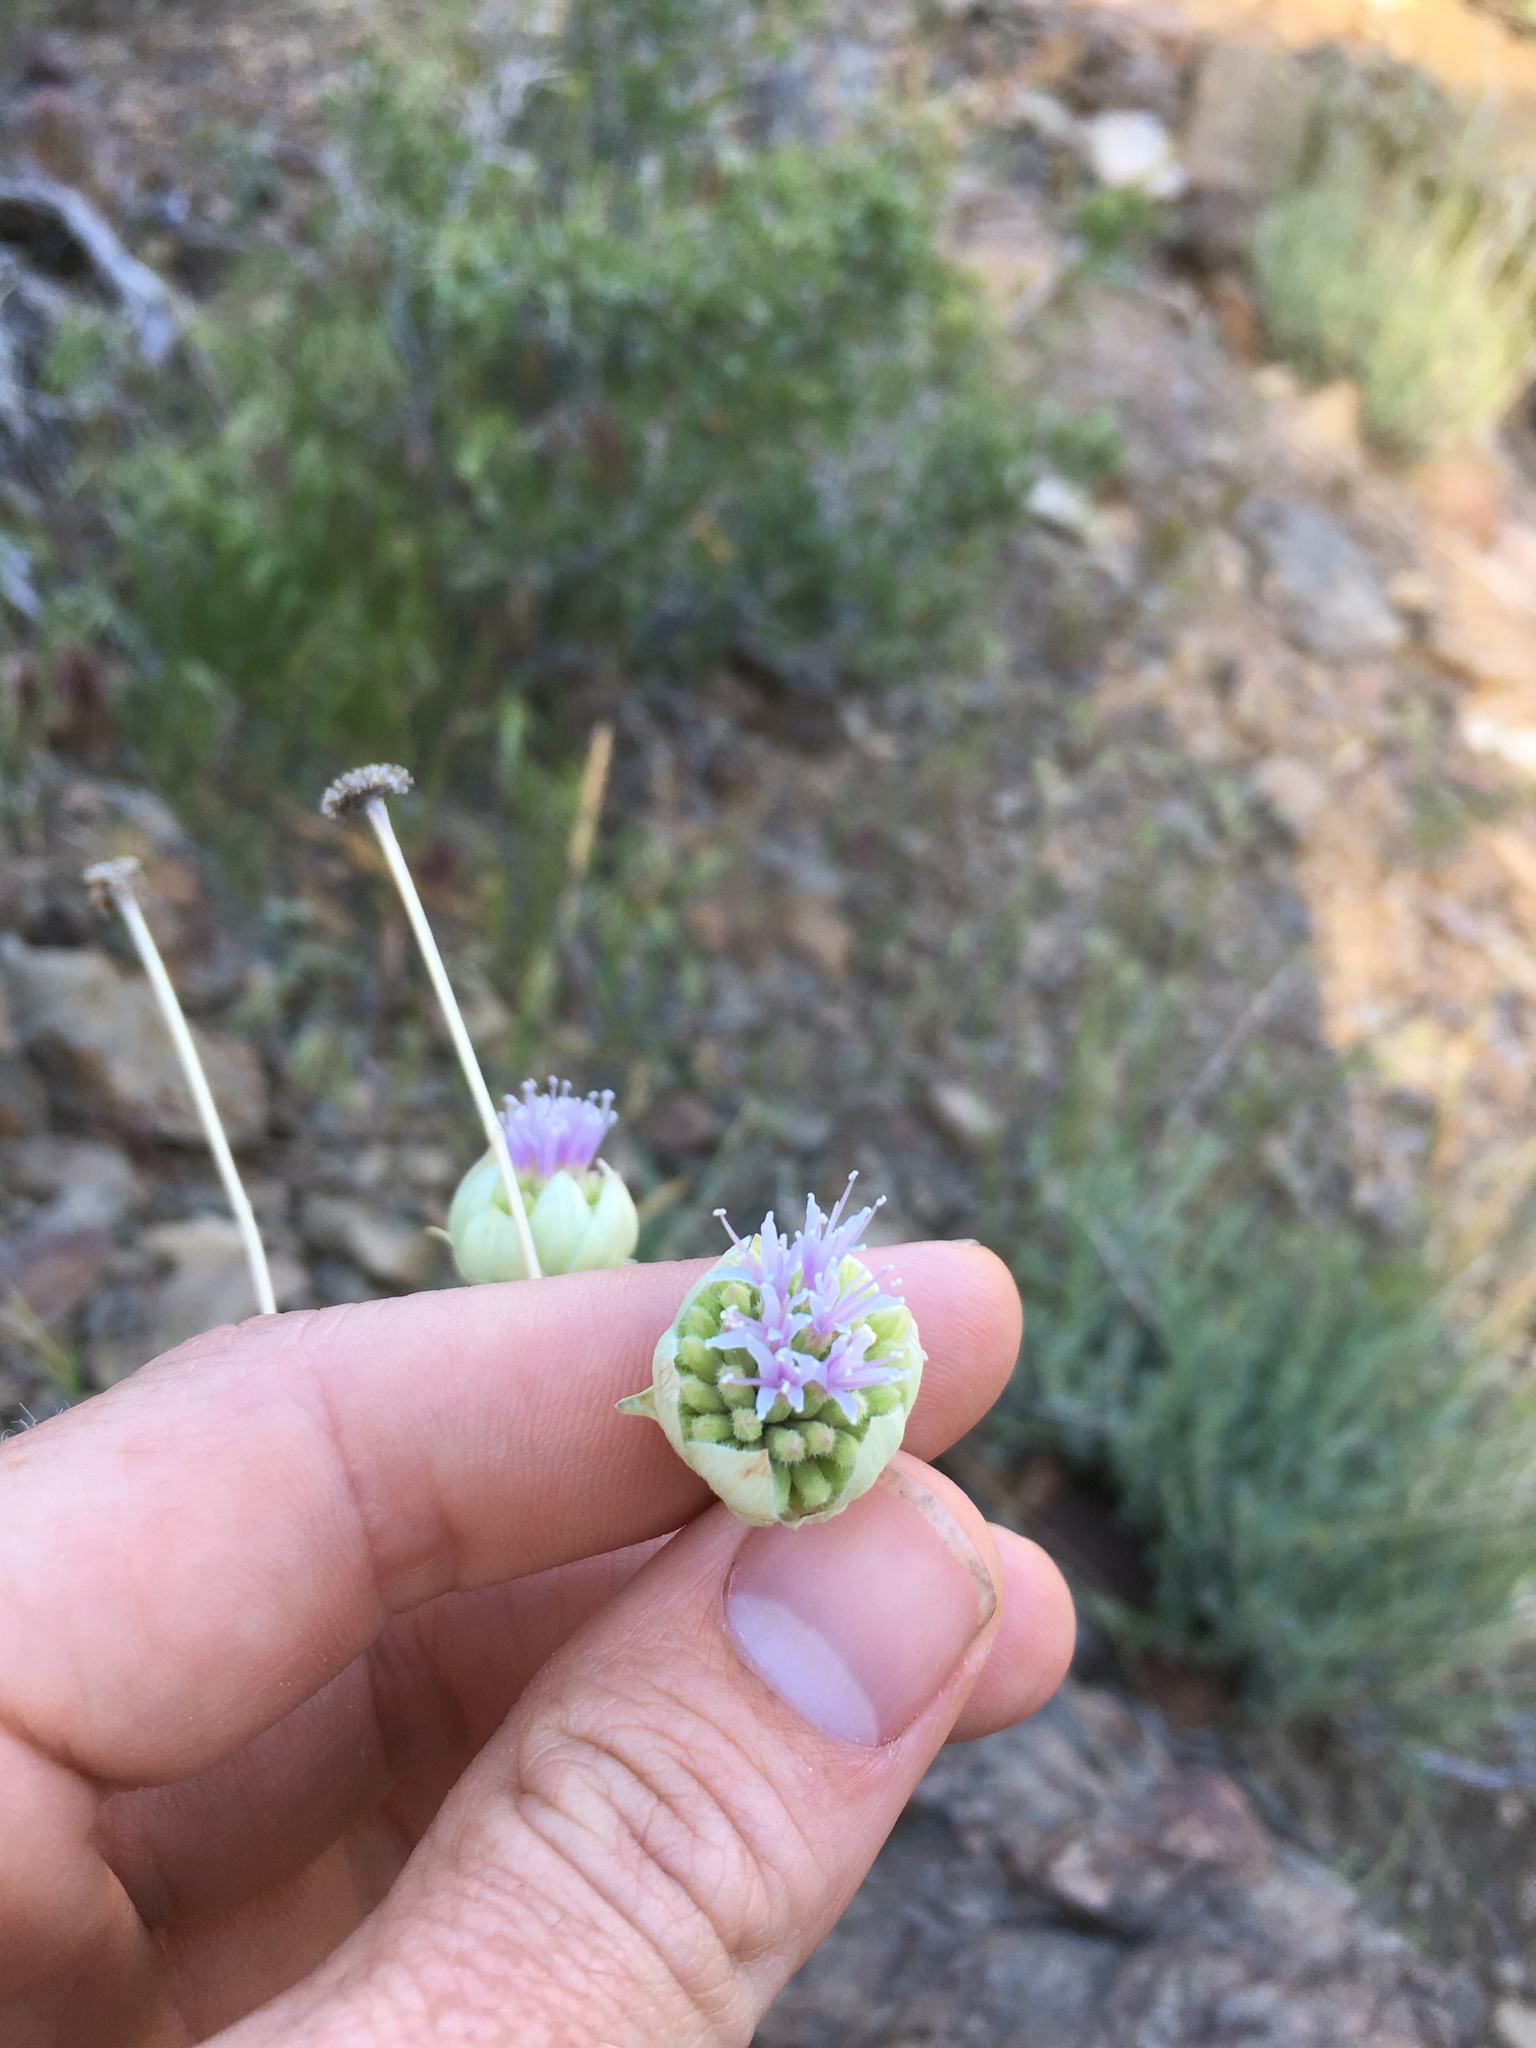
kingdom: Plantae
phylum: Tracheophyta
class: Magnoliopsida
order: Lamiales
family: Lamiaceae
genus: Monardella
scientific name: Monardella linoides
